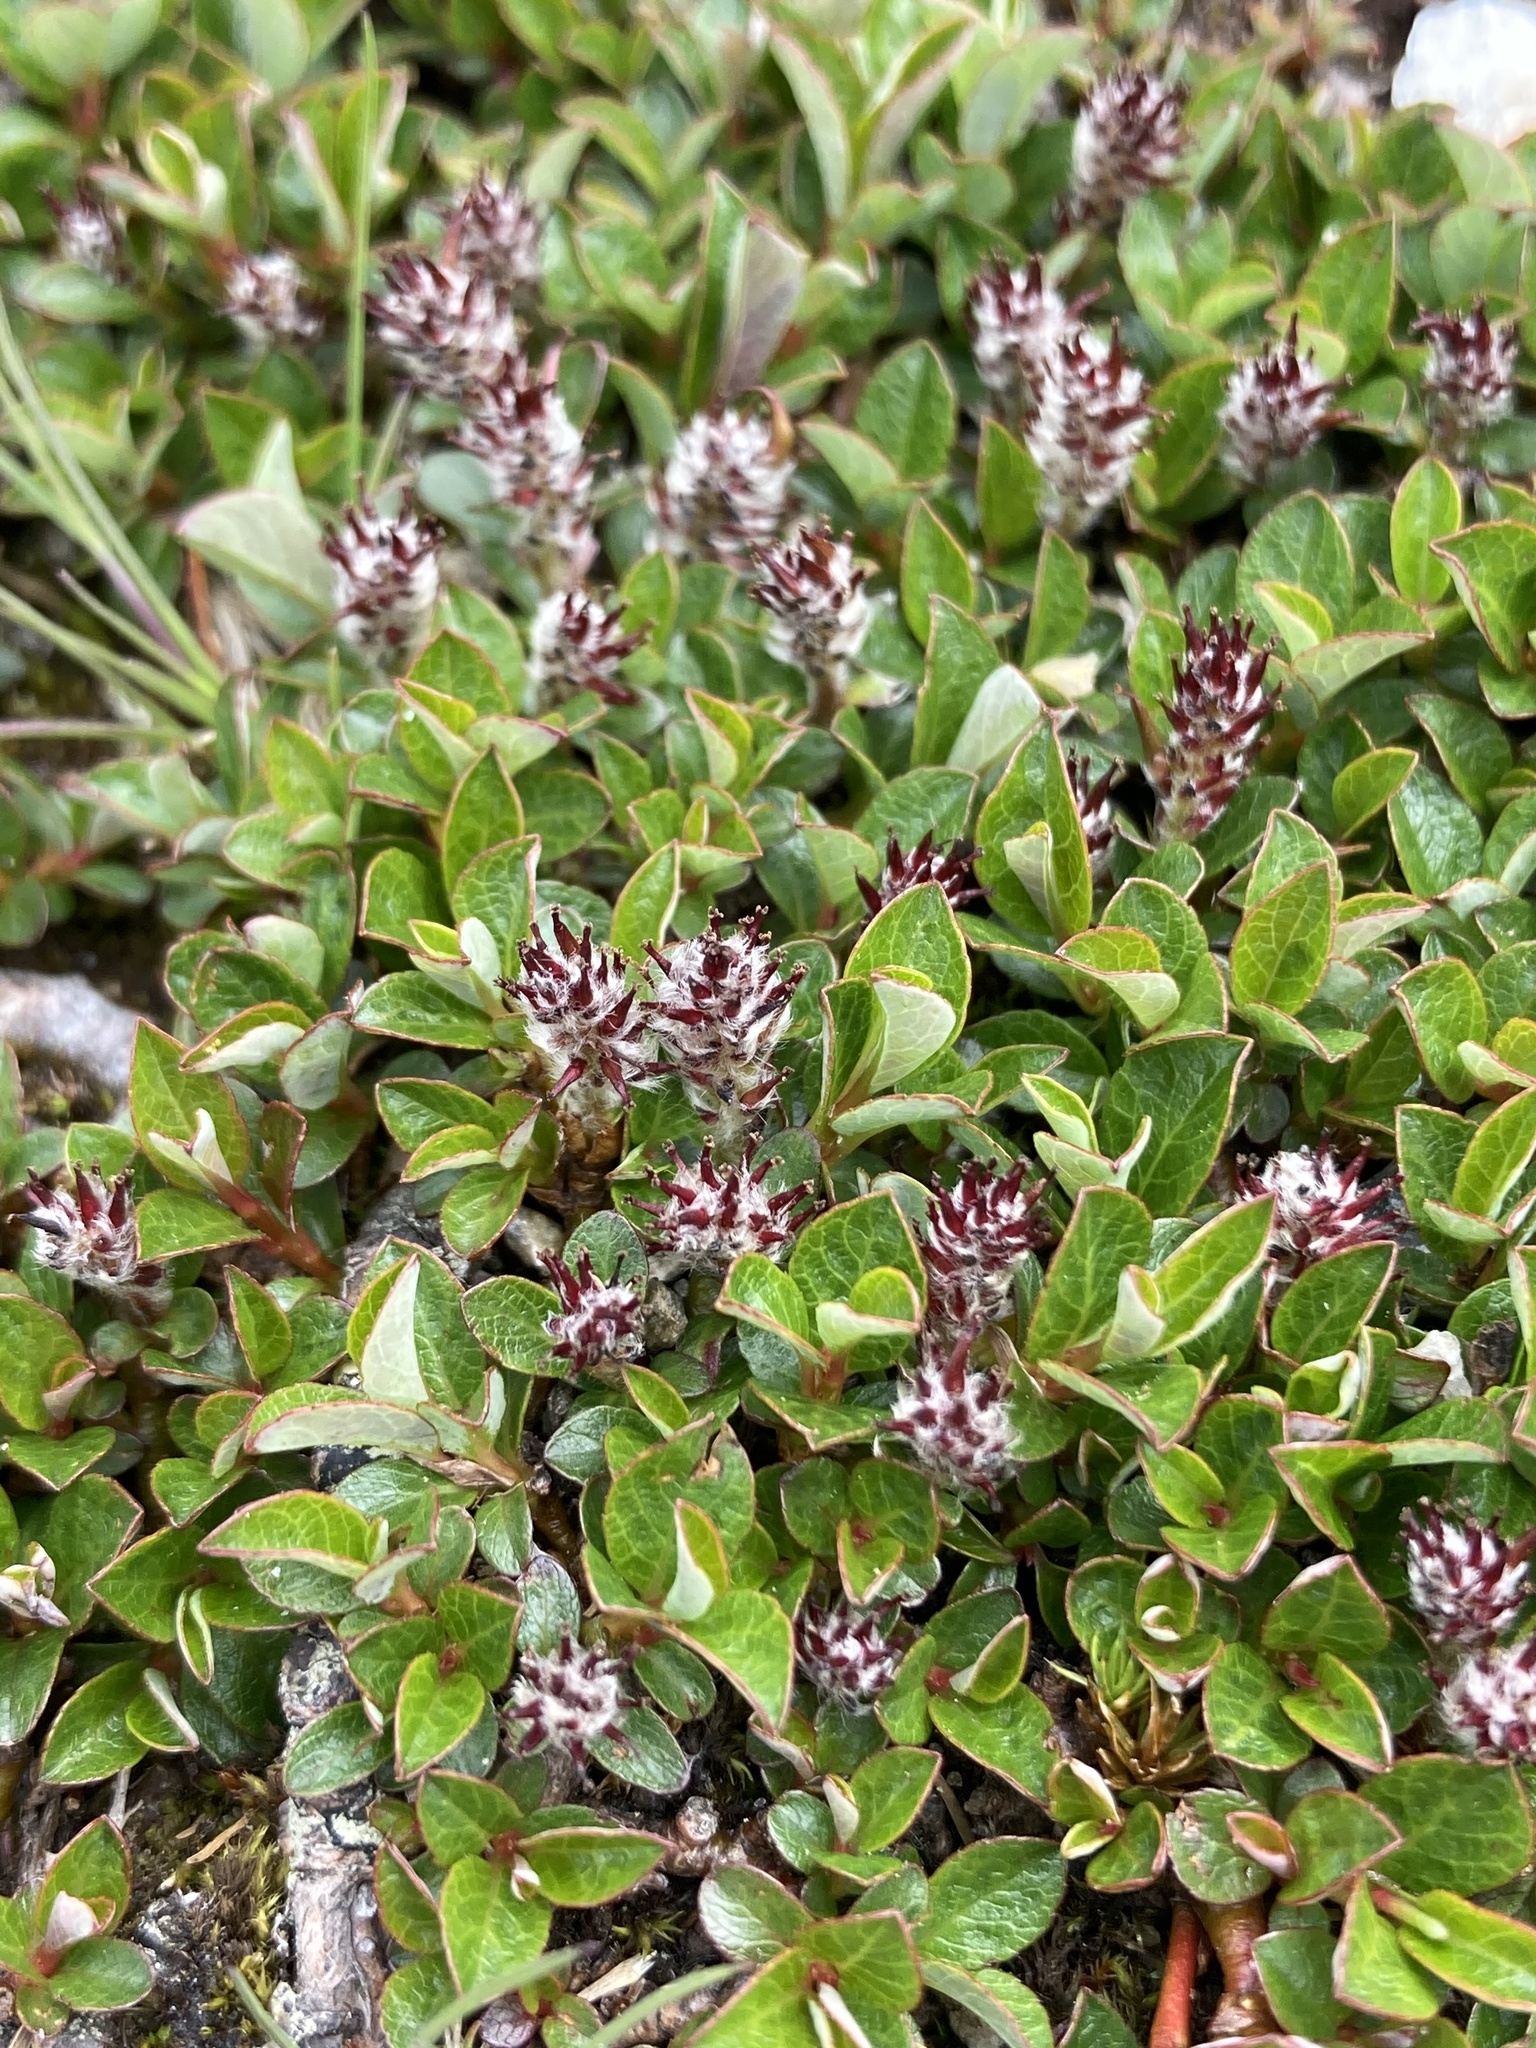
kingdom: Plantae
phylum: Tracheophyta
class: Magnoliopsida
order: Malpighiales
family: Salicaceae
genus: Salix
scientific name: Salix uva-ursi
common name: Bearberry willow
